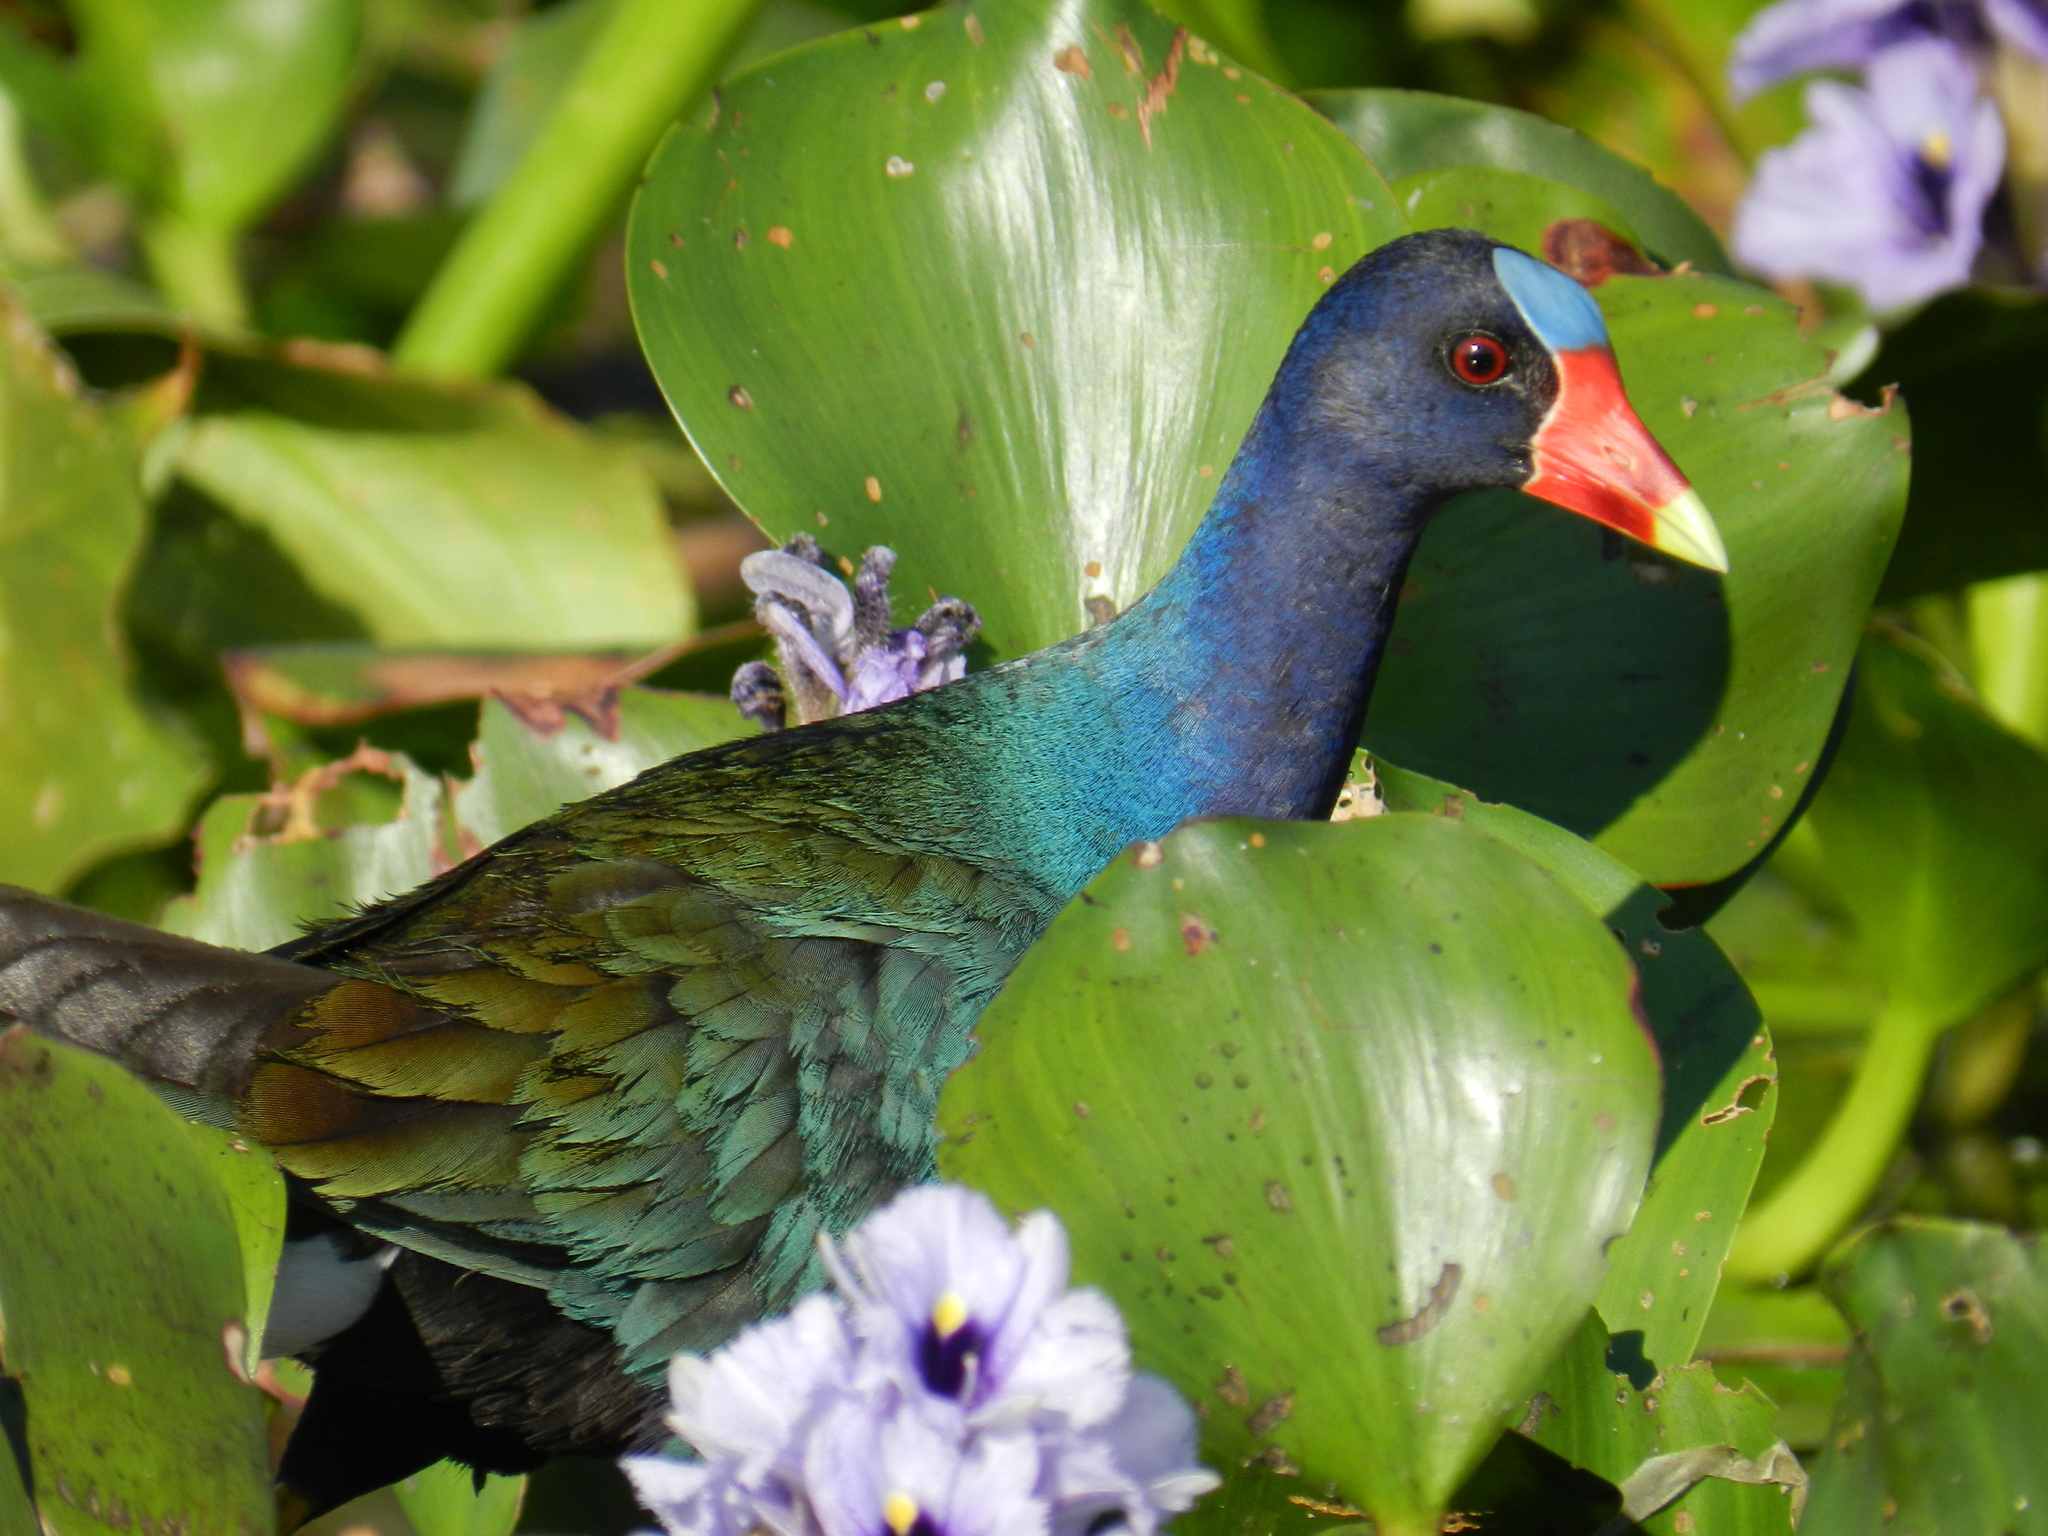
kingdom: Animalia
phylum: Chordata
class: Aves
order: Gruiformes
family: Rallidae
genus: Porphyrio
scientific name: Porphyrio martinica
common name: Purple gallinule
